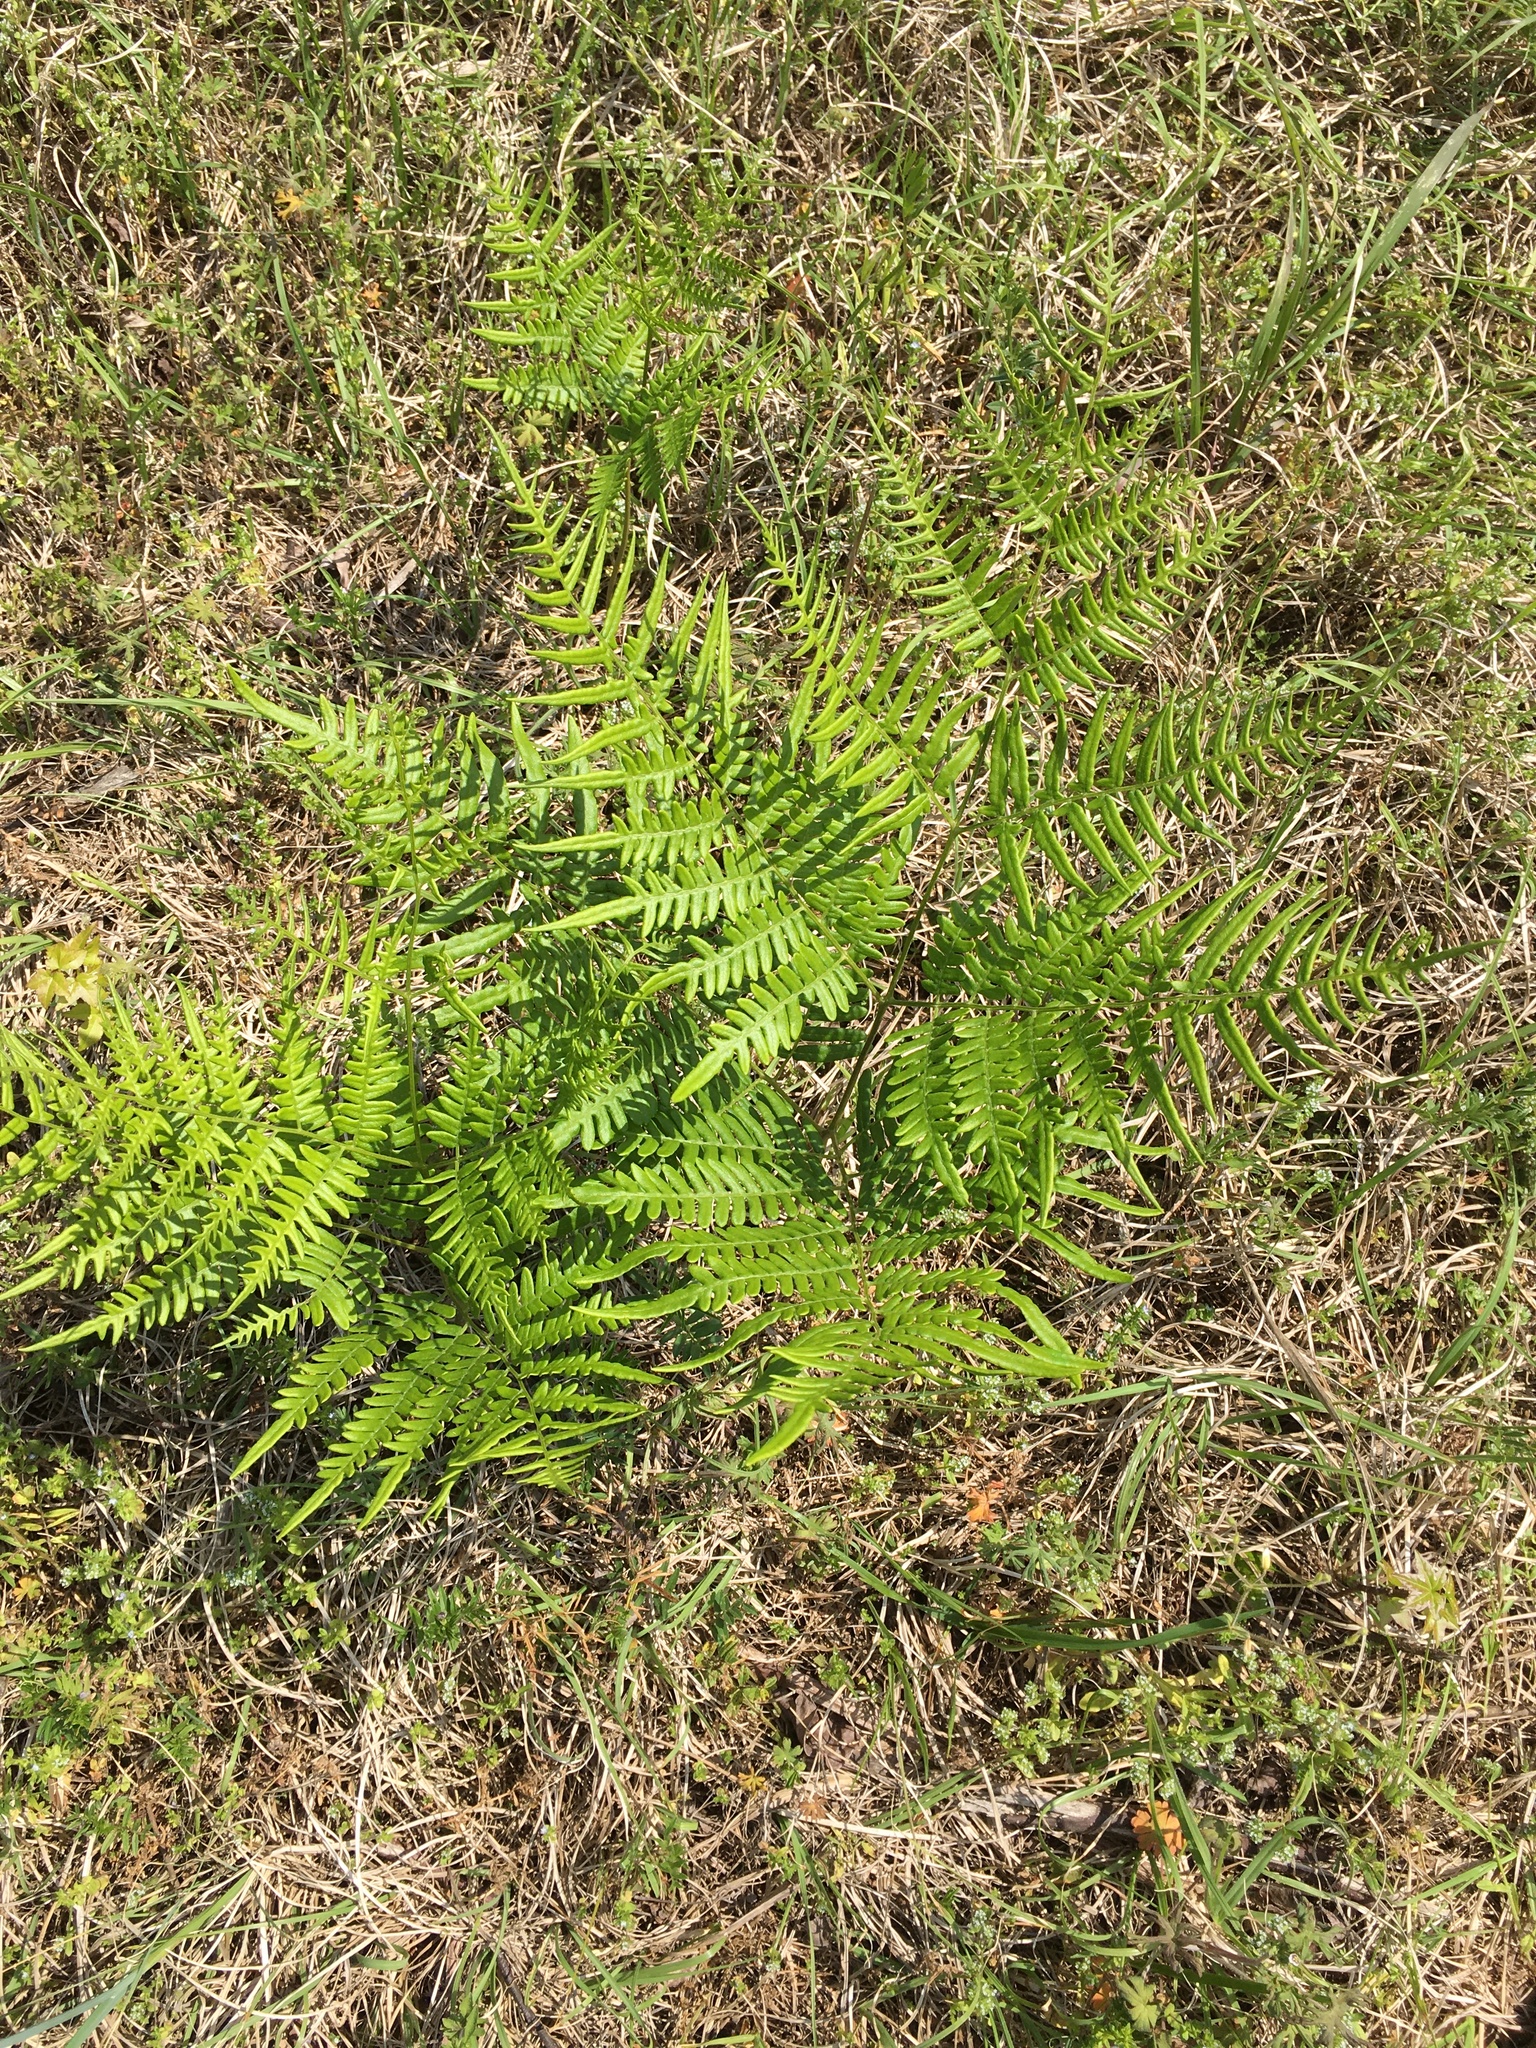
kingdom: Plantae
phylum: Tracheophyta
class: Polypodiopsida
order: Polypodiales
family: Dennstaedtiaceae
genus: Pteridium
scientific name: Pteridium
